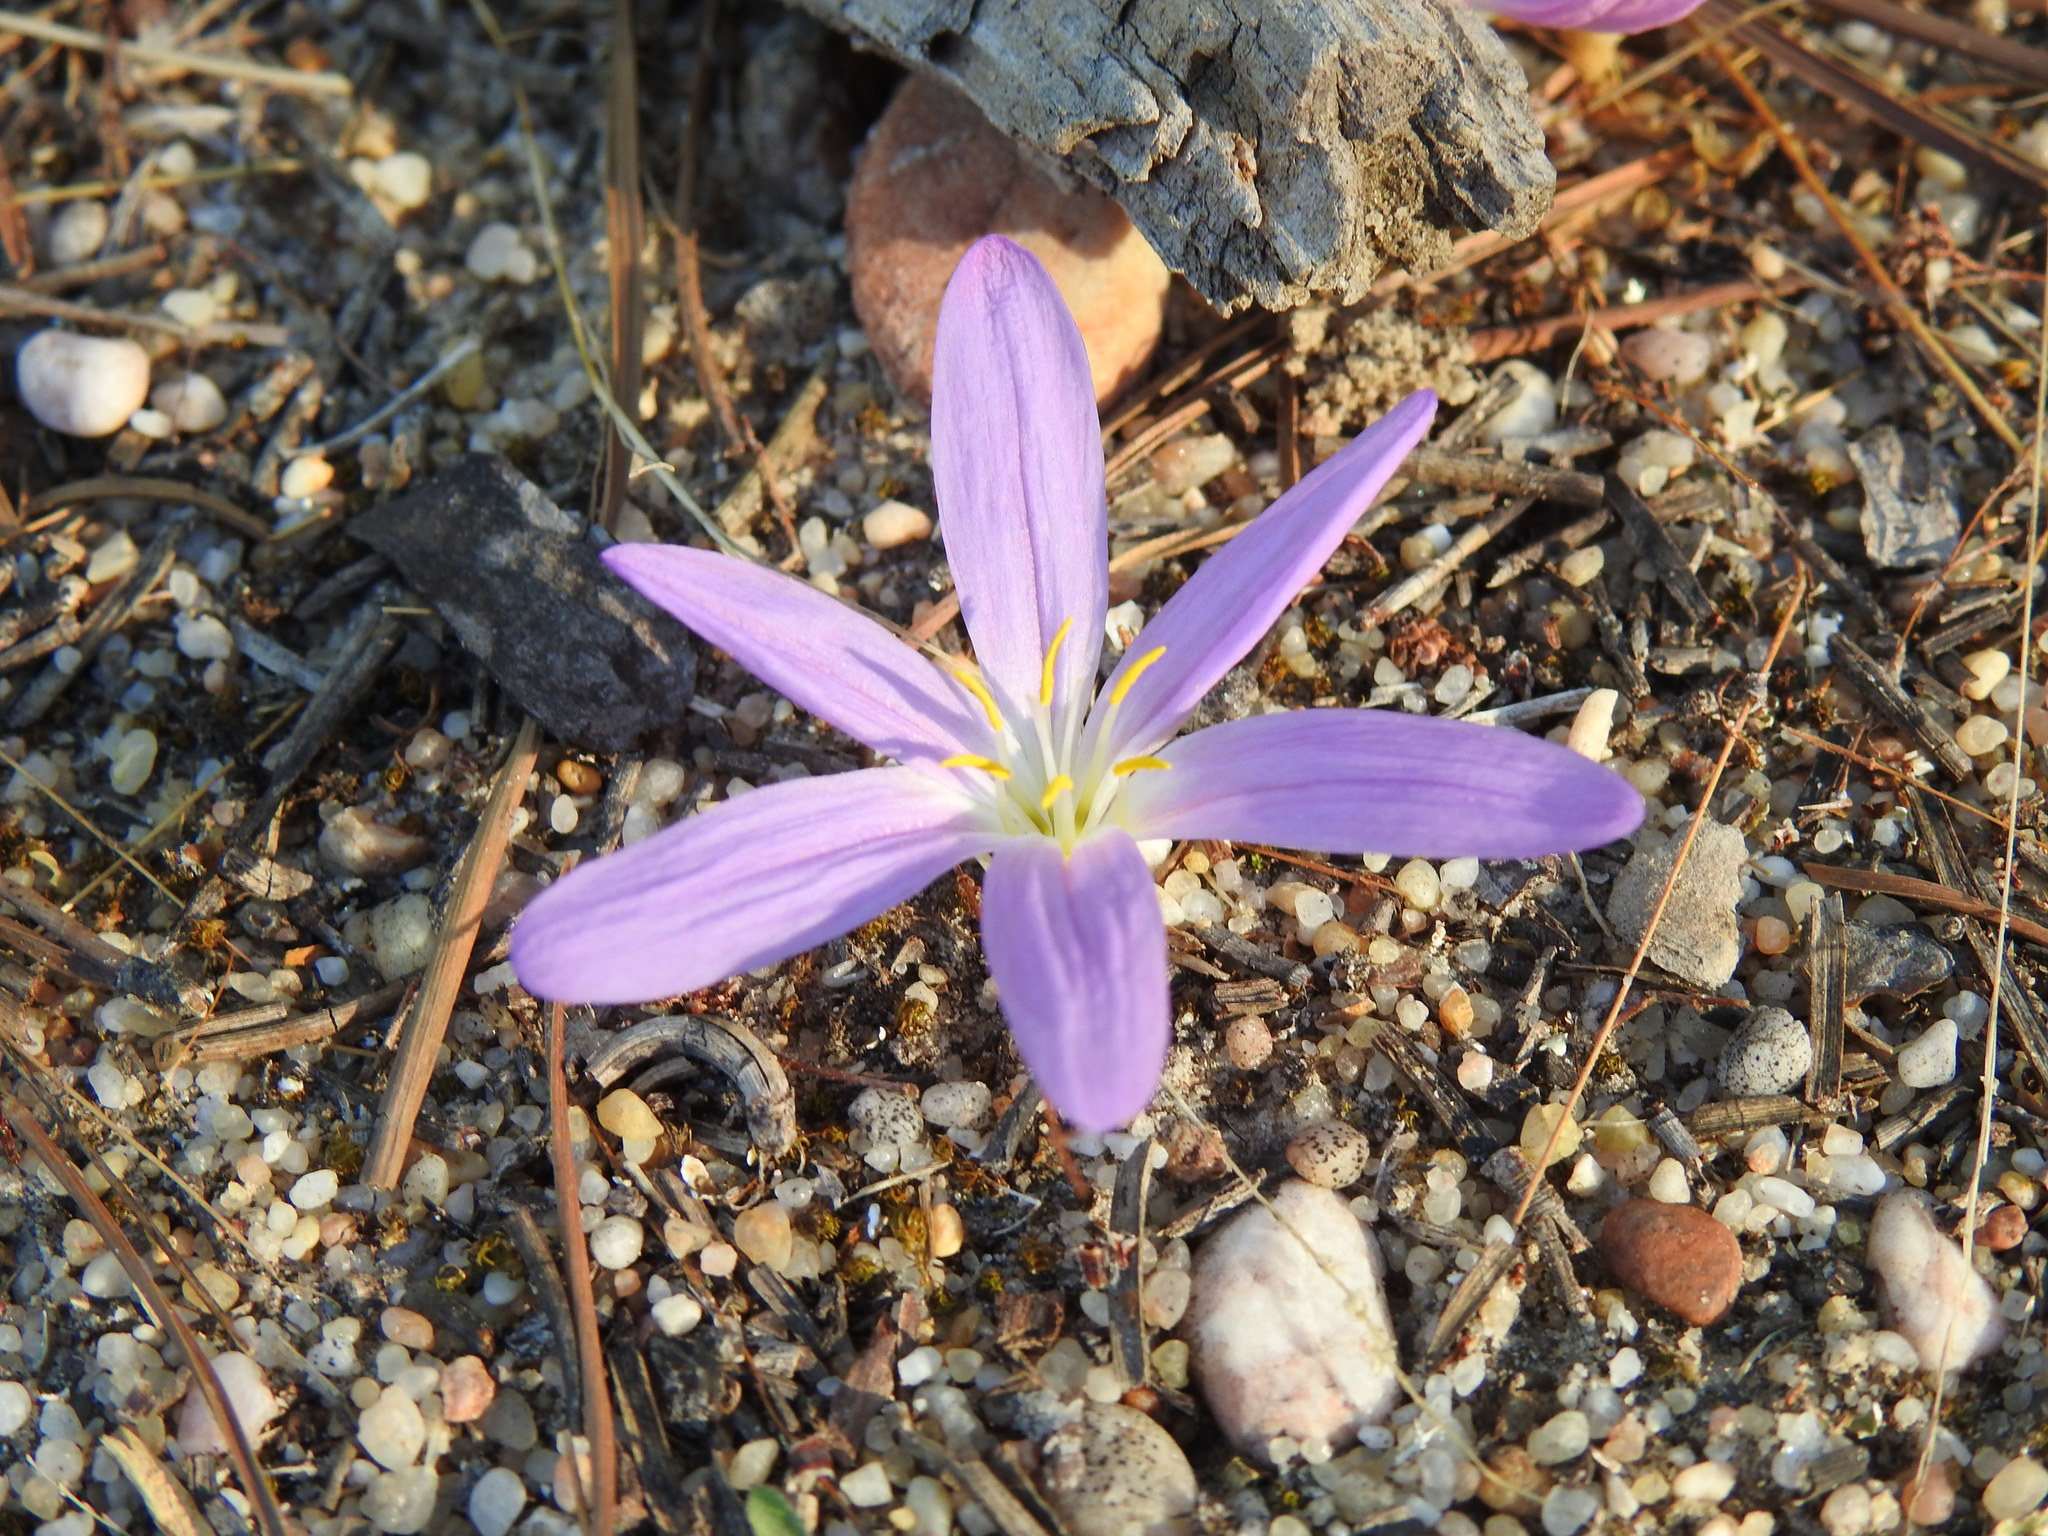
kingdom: Plantae
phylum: Tracheophyta
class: Liliopsida
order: Liliales
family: Colchicaceae
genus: Colchicum
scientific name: Colchicum filifolium
